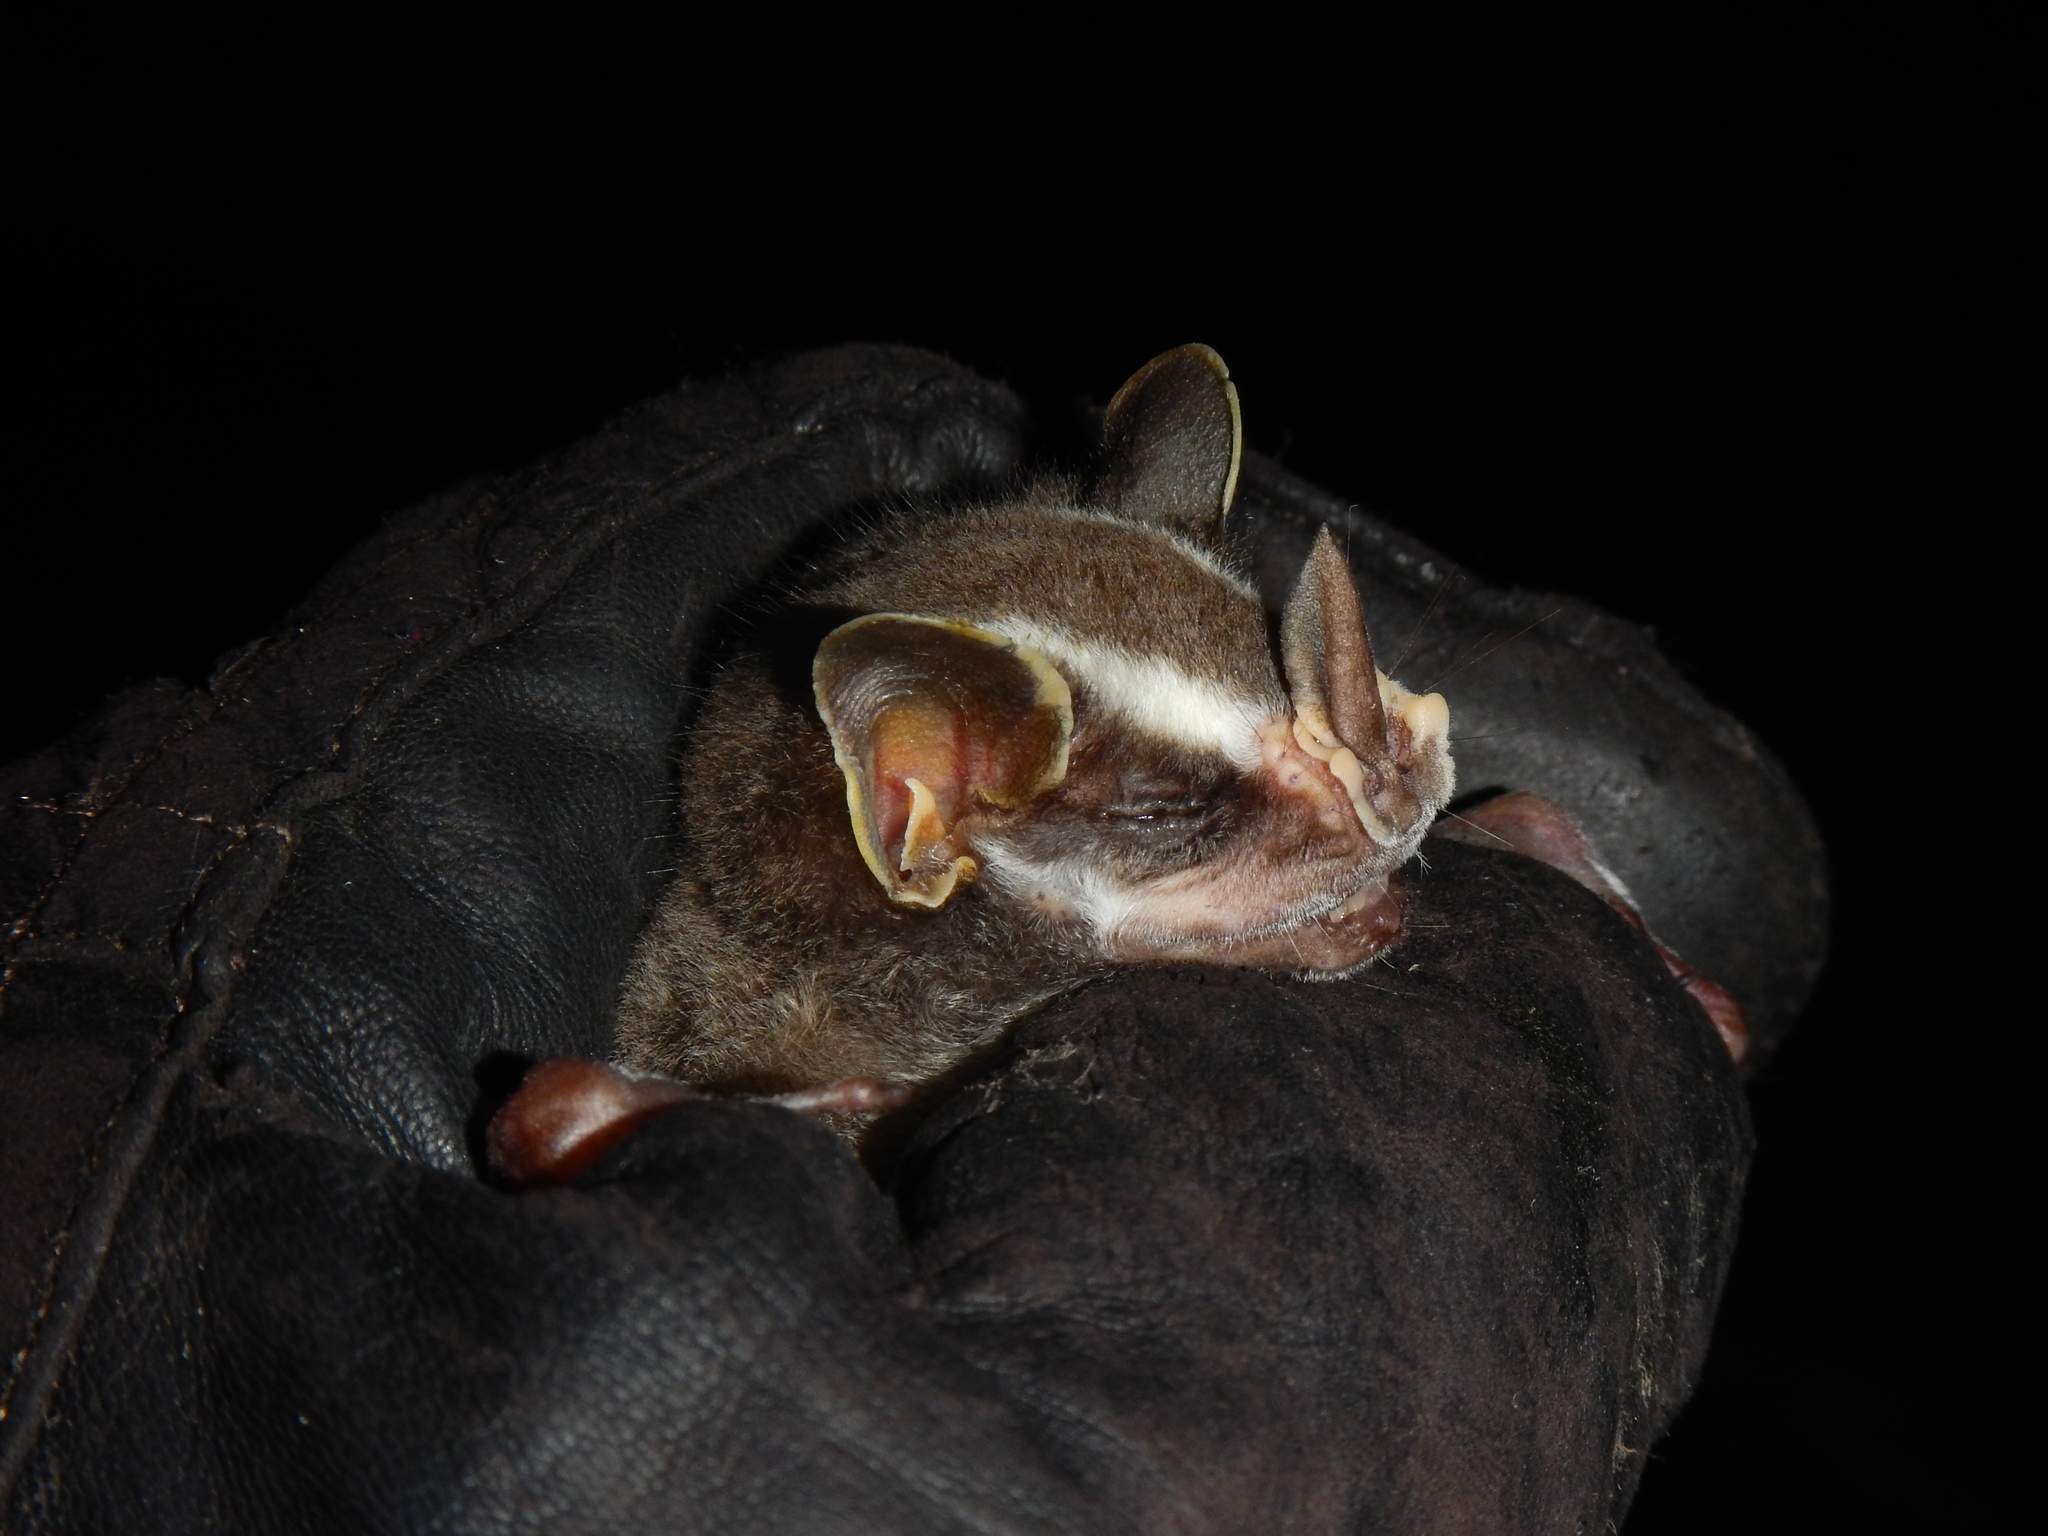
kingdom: Animalia
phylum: Chordata
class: Mammalia
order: Chiroptera
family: Phyllostomidae
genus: Uroderma
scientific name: Uroderma bilobatum
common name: Common tent-making bat
